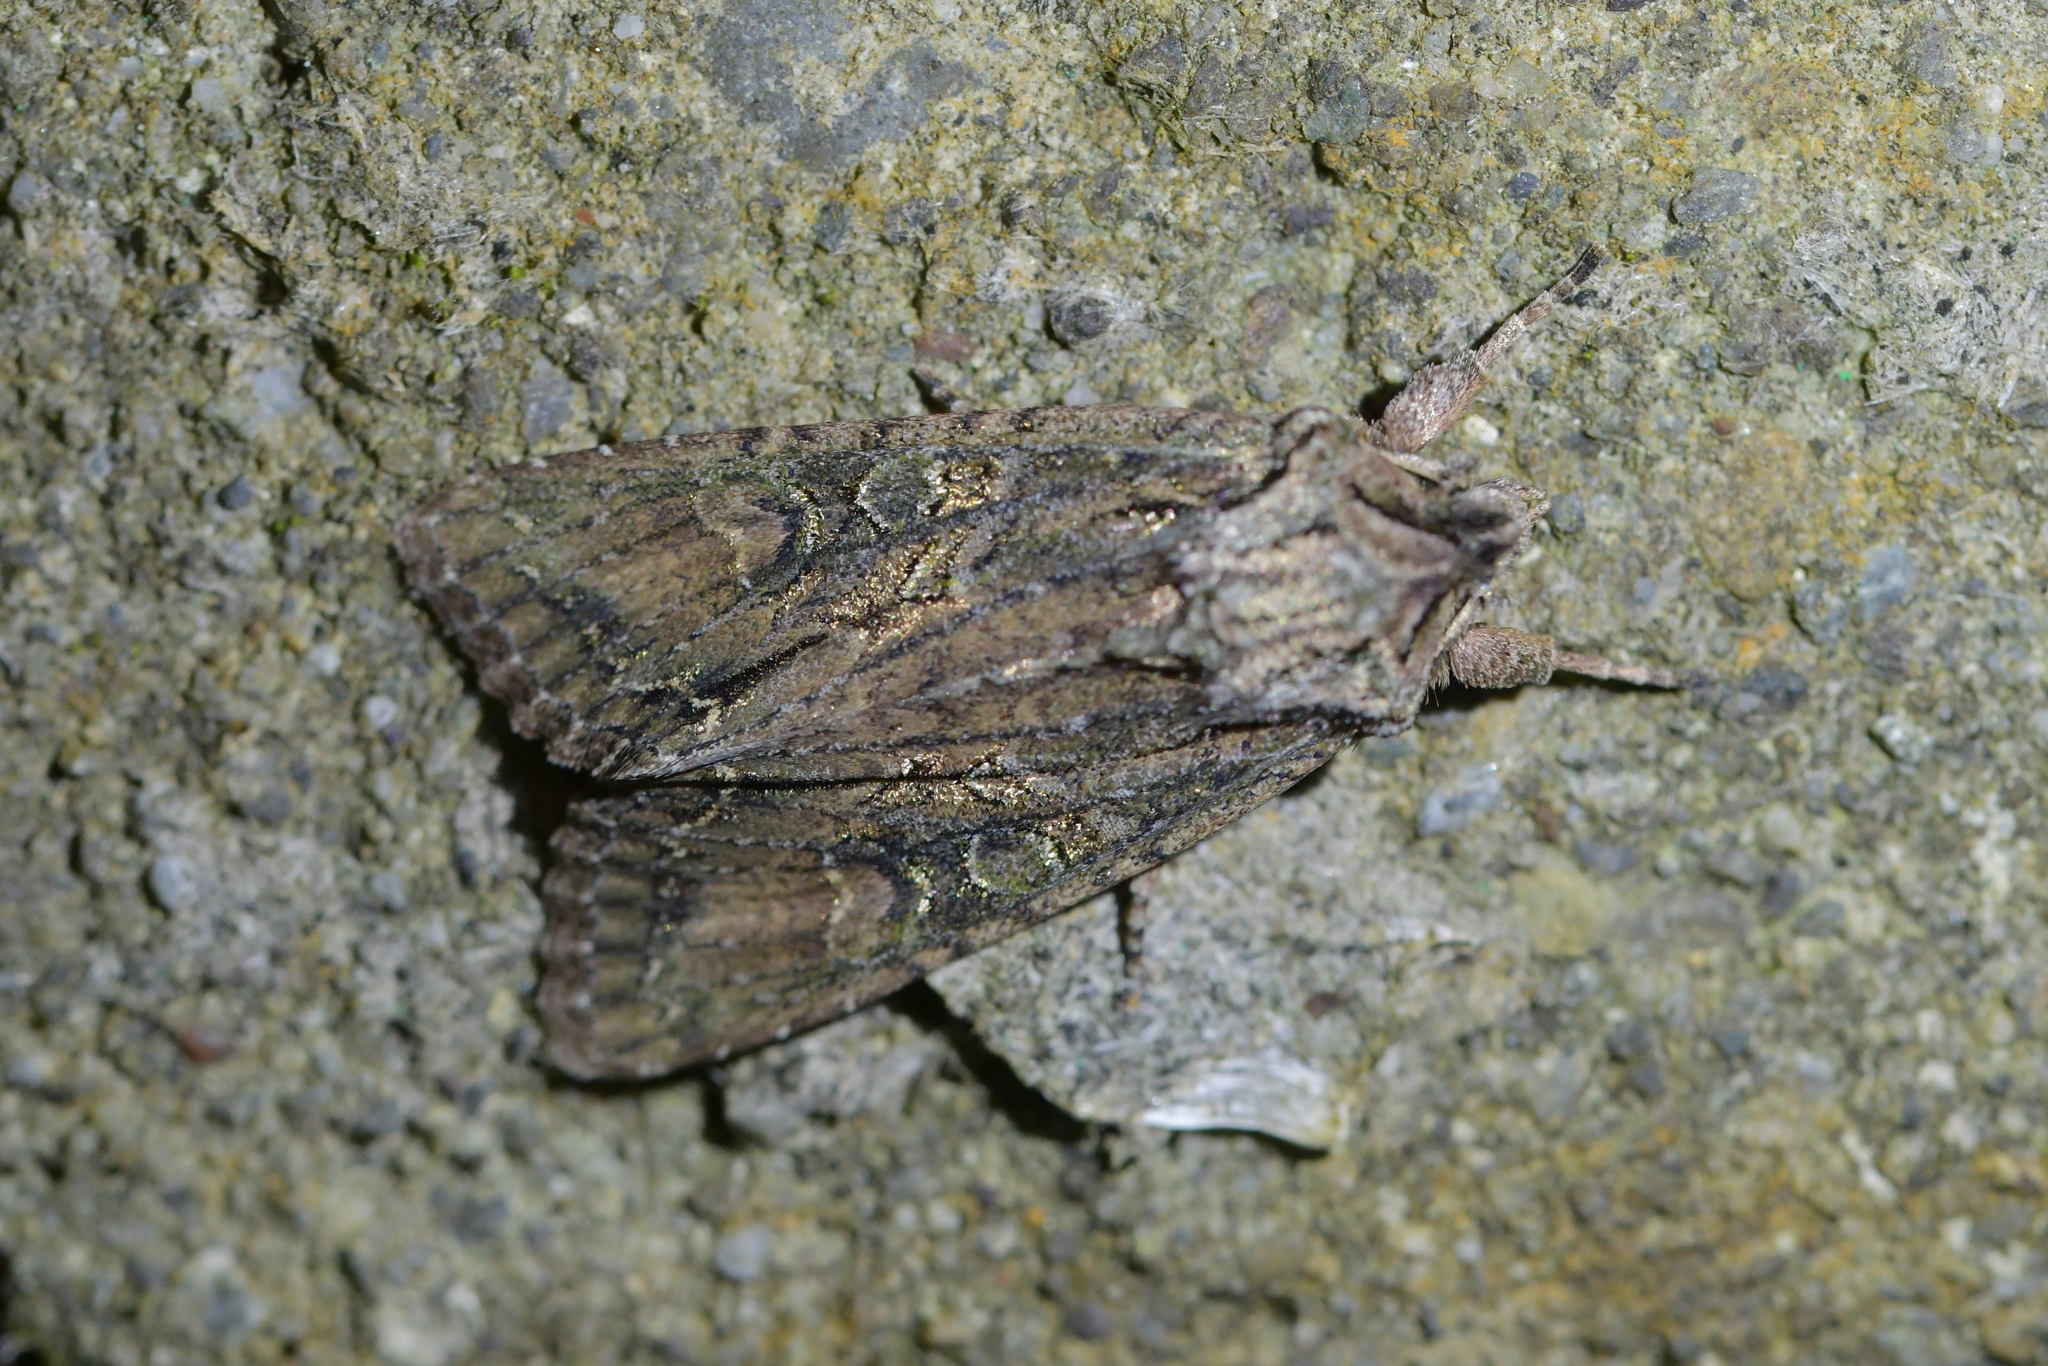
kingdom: Animalia
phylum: Arthropoda
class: Insecta
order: Lepidoptera
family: Noctuidae
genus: Ichneutica
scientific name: Ichneutica mutans
